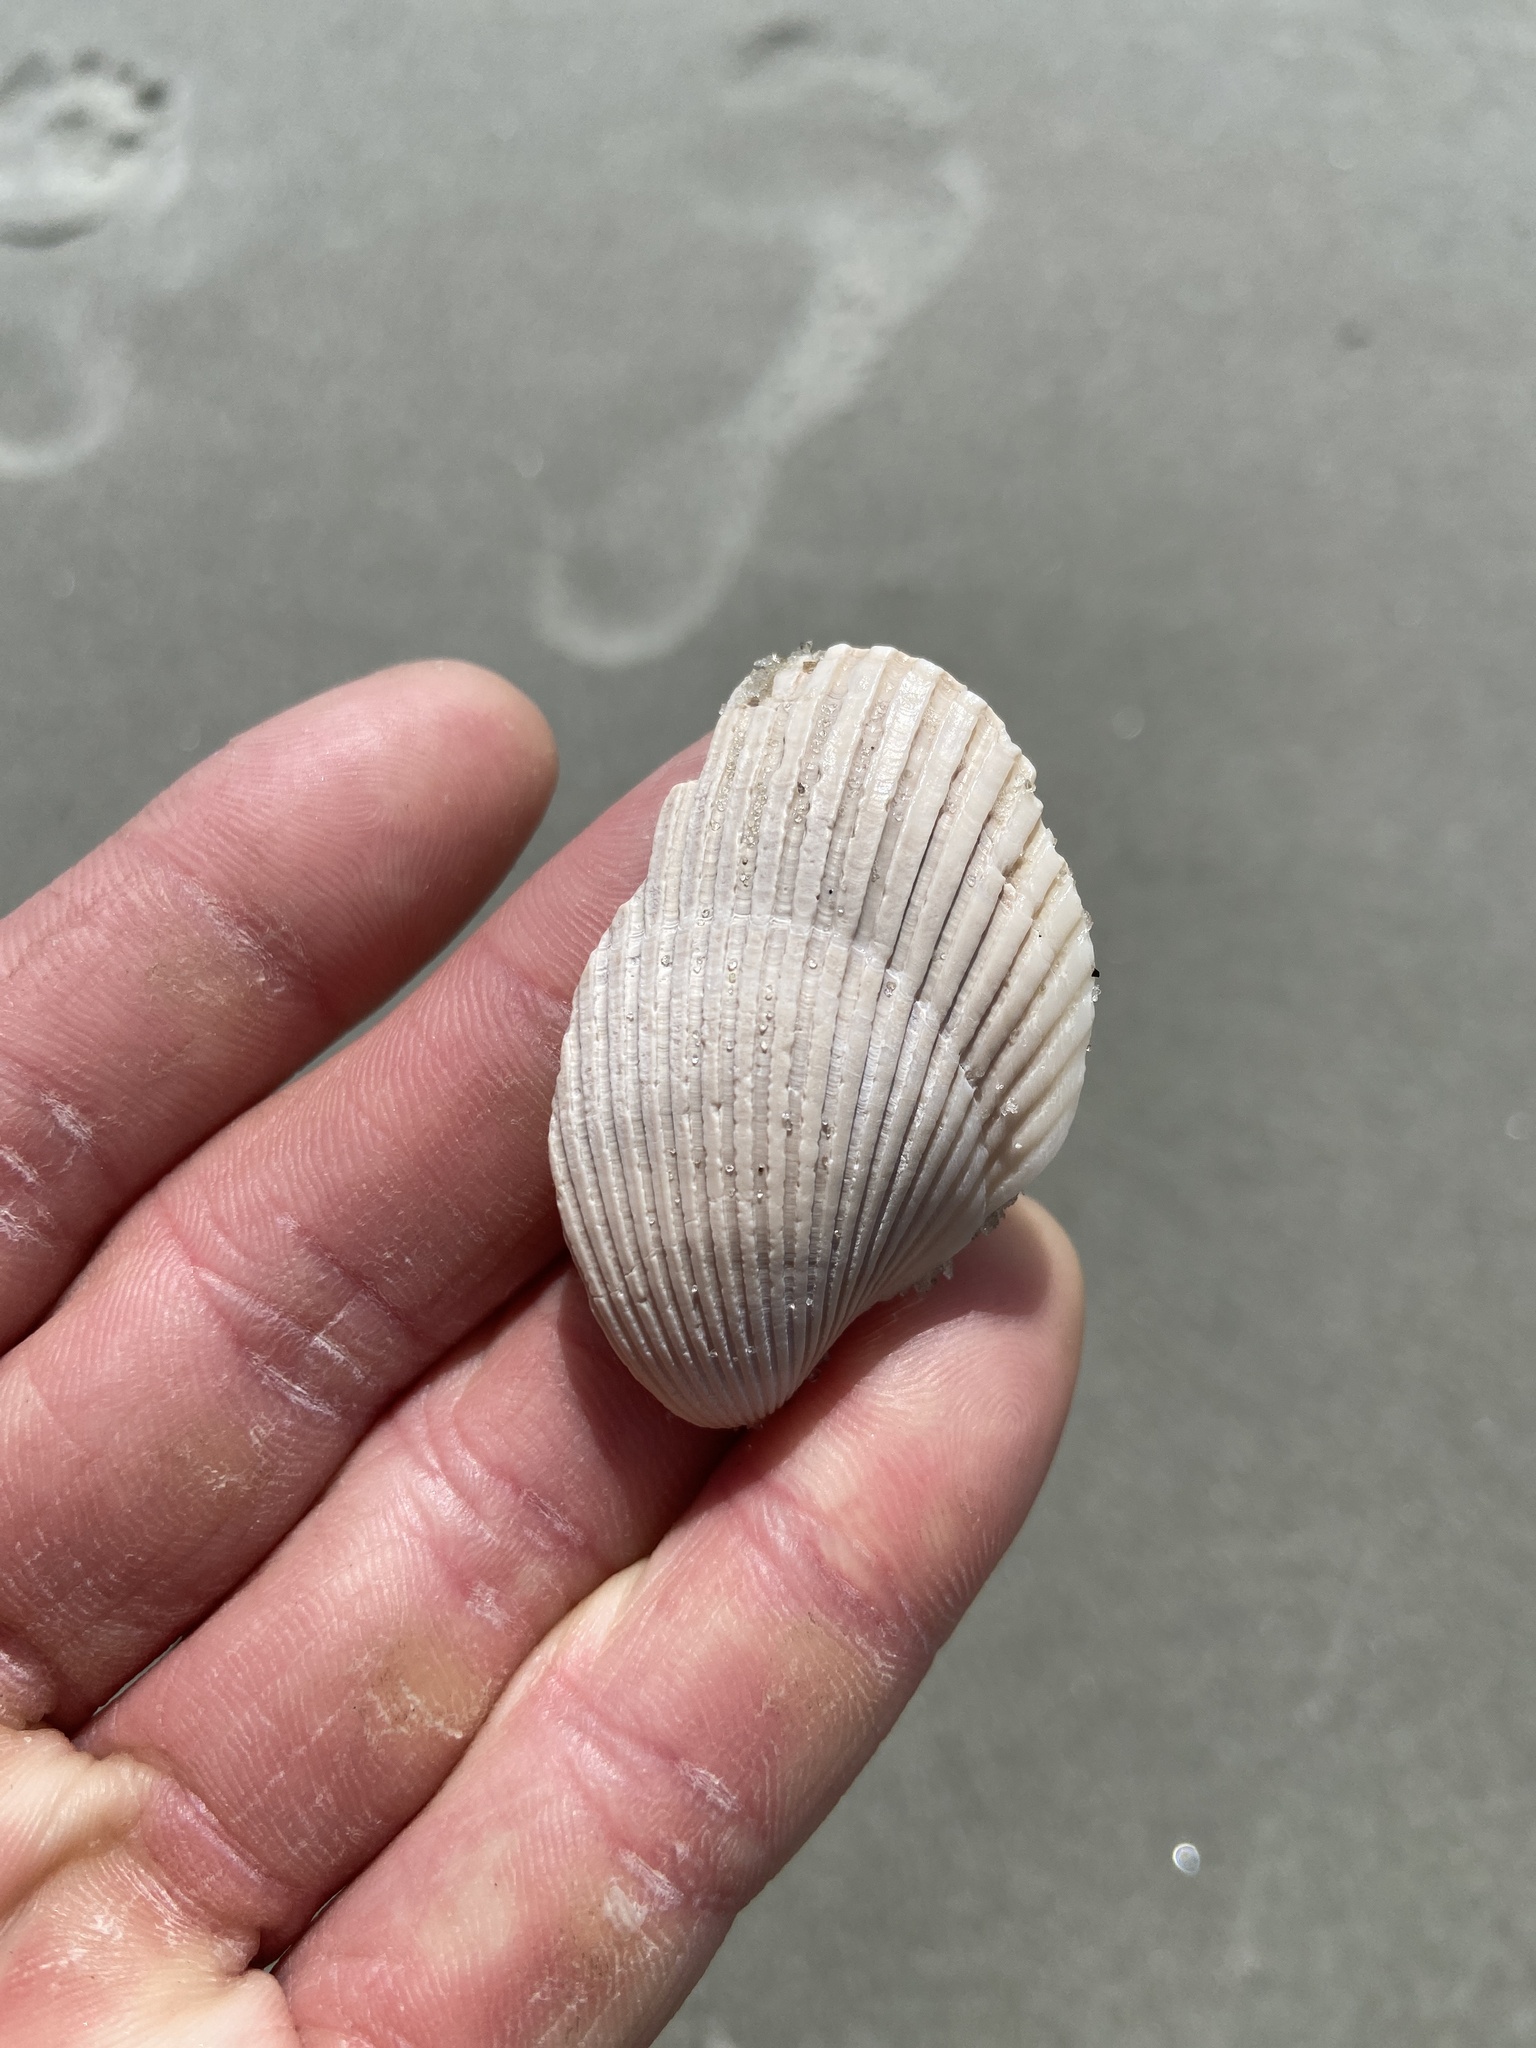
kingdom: Animalia
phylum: Mollusca
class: Bivalvia
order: Arcida
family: Arcidae
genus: Lunarca
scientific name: Lunarca ovalis
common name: Blood ark
